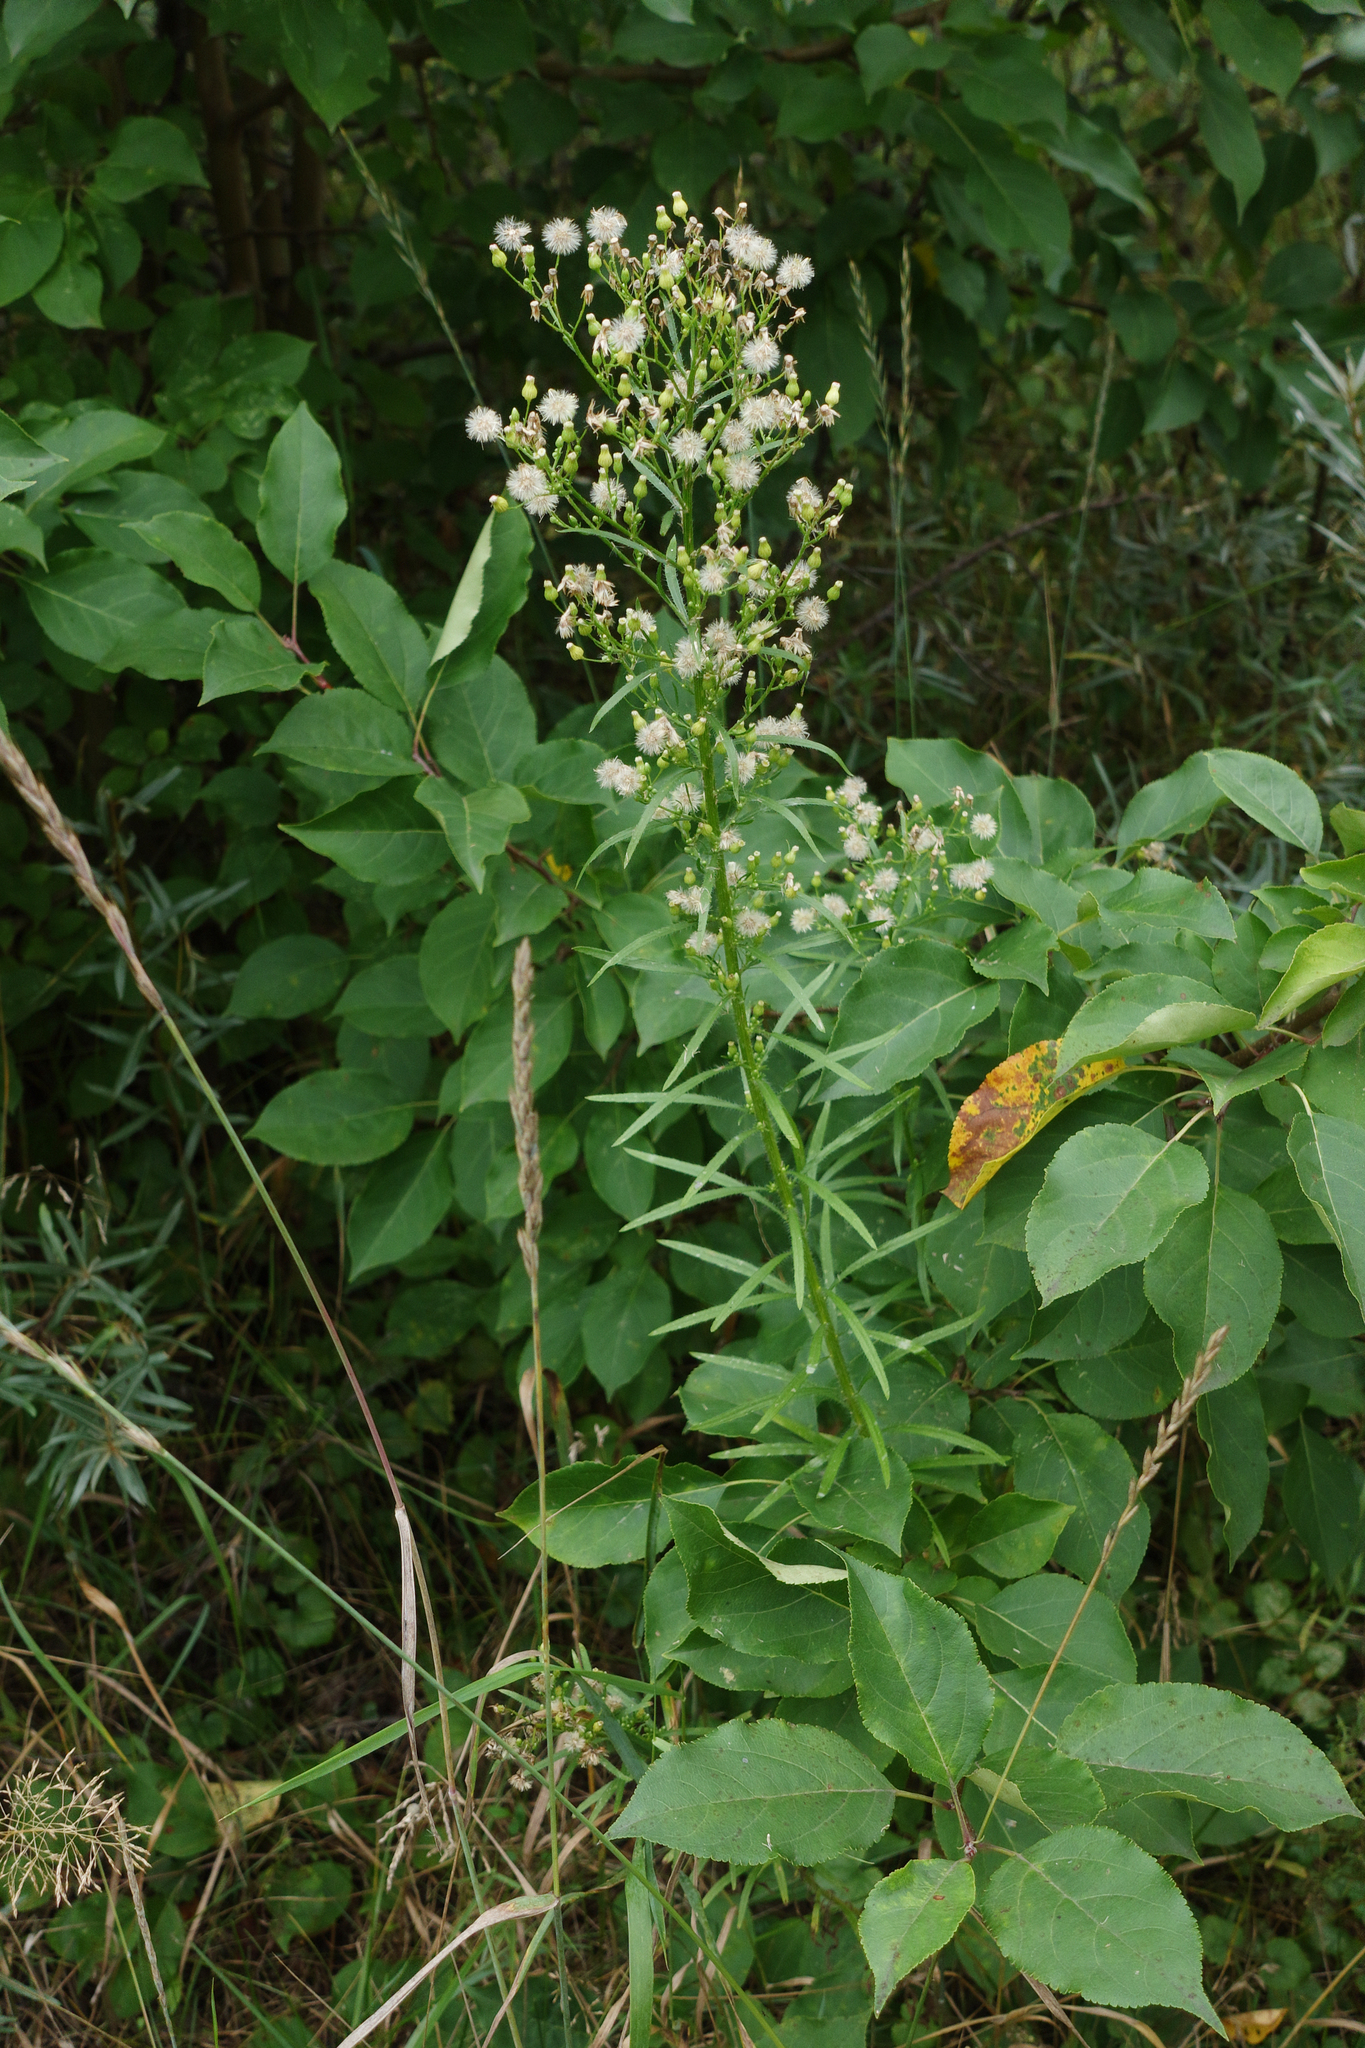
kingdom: Plantae
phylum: Tracheophyta
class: Magnoliopsida
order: Asterales
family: Asteraceae
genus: Erigeron
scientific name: Erigeron canadensis
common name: Canadian fleabane
